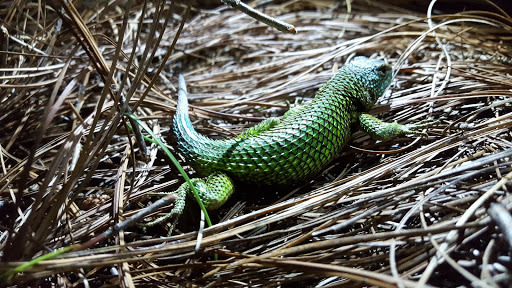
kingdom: Animalia
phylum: Chordata
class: Squamata
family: Phrynosomatidae
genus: Sceloporus
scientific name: Sceloporus formosus
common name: Mexican emerald spiny lizard
